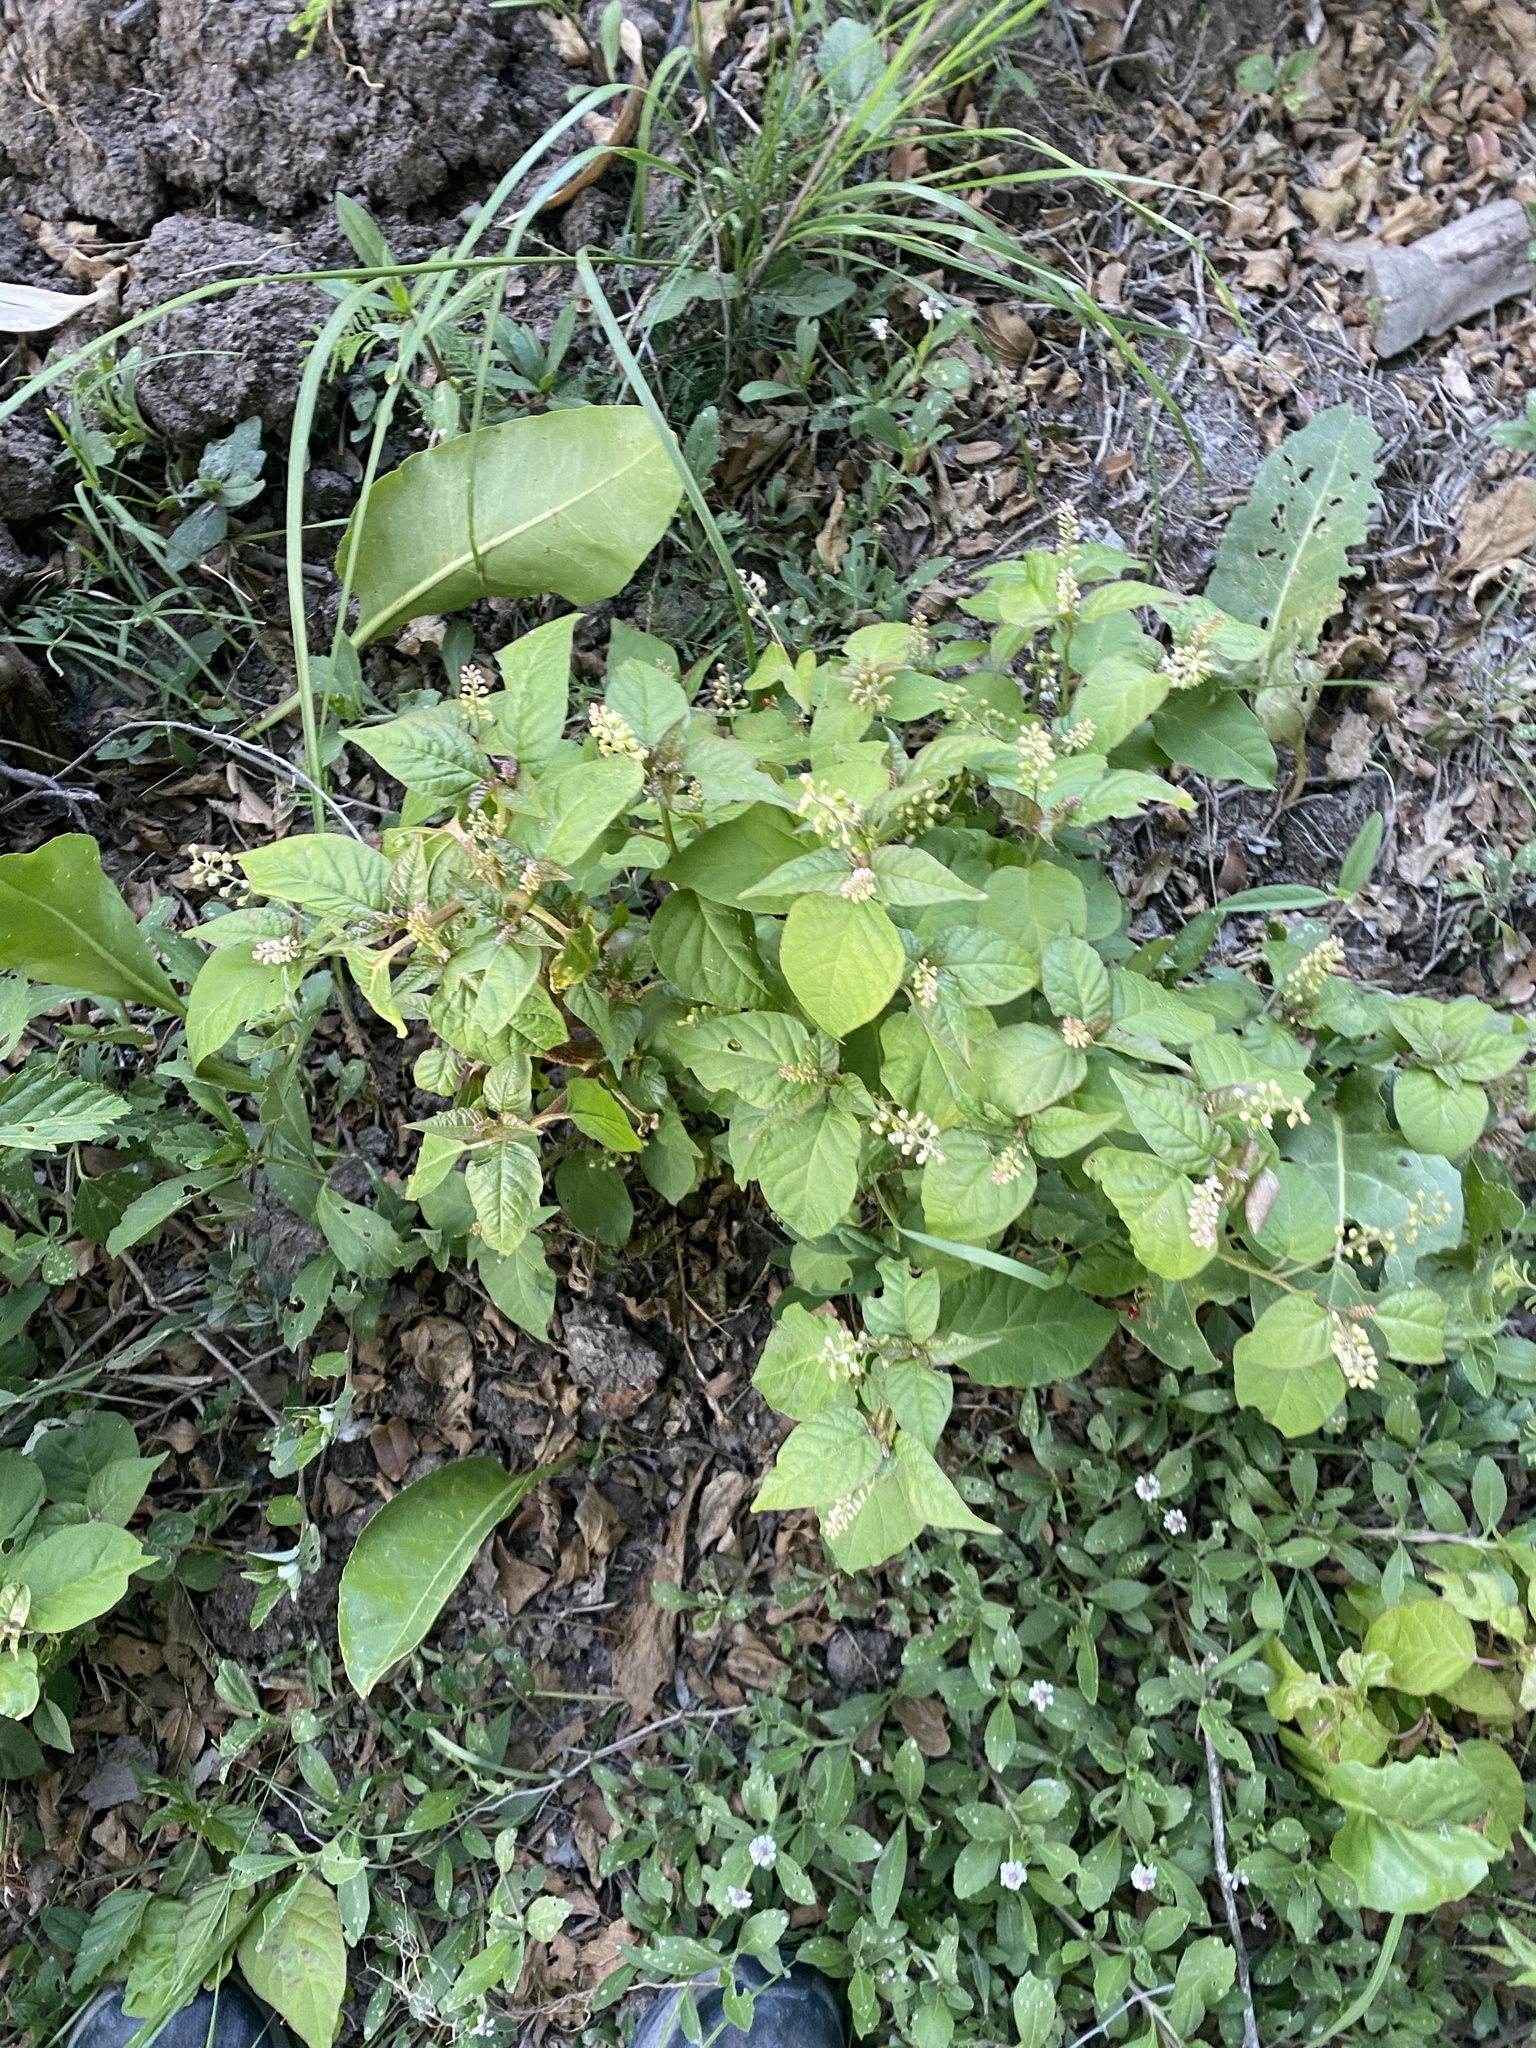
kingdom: Plantae
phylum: Tracheophyta
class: Magnoliopsida
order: Caryophyllales
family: Phytolaccaceae
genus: Rivina
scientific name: Rivina humilis
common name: Rougeplant
